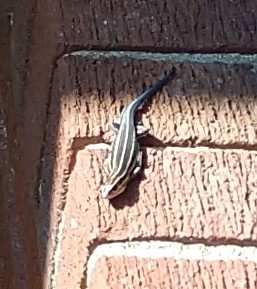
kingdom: Animalia
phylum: Chordata
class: Squamata
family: Scincidae
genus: Plestiodon
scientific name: Plestiodon laticeps
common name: Broadhead skink
